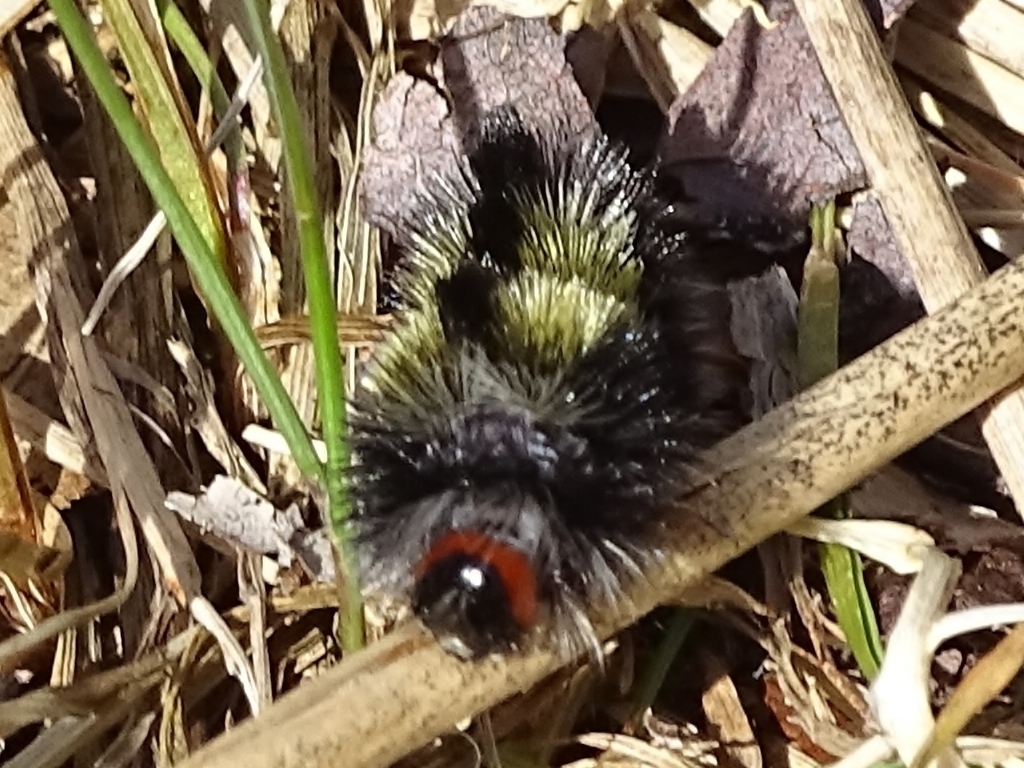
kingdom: Animalia
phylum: Arthropoda
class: Insecta
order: Lepidoptera
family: Erebidae
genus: Ctenucha
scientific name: Ctenucha virginica
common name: Virginia ctenucha moth
